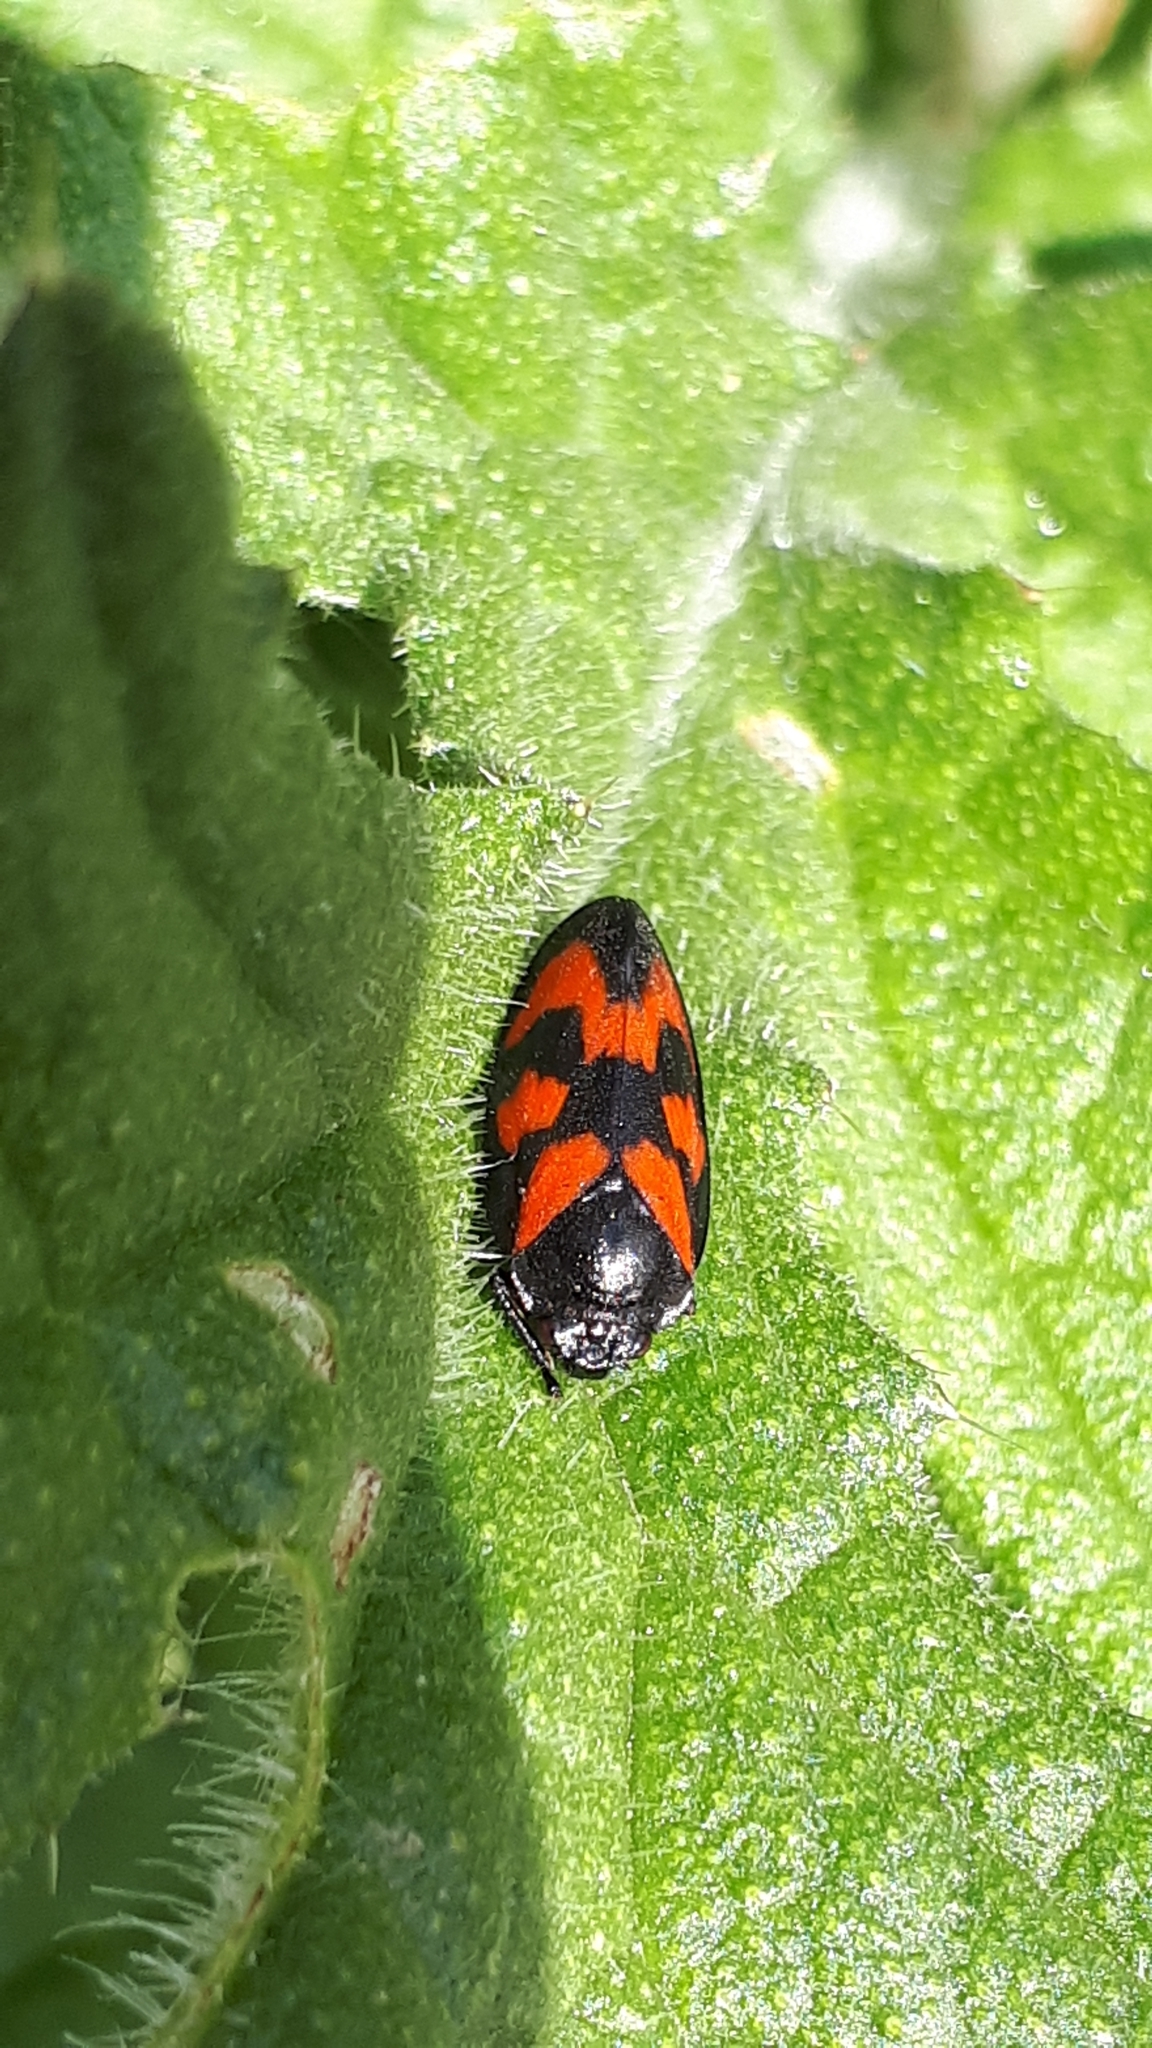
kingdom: Animalia
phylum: Arthropoda
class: Insecta
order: Hemiptera
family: Cercopidae
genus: Cercopis
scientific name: Cercopis vulnerata
